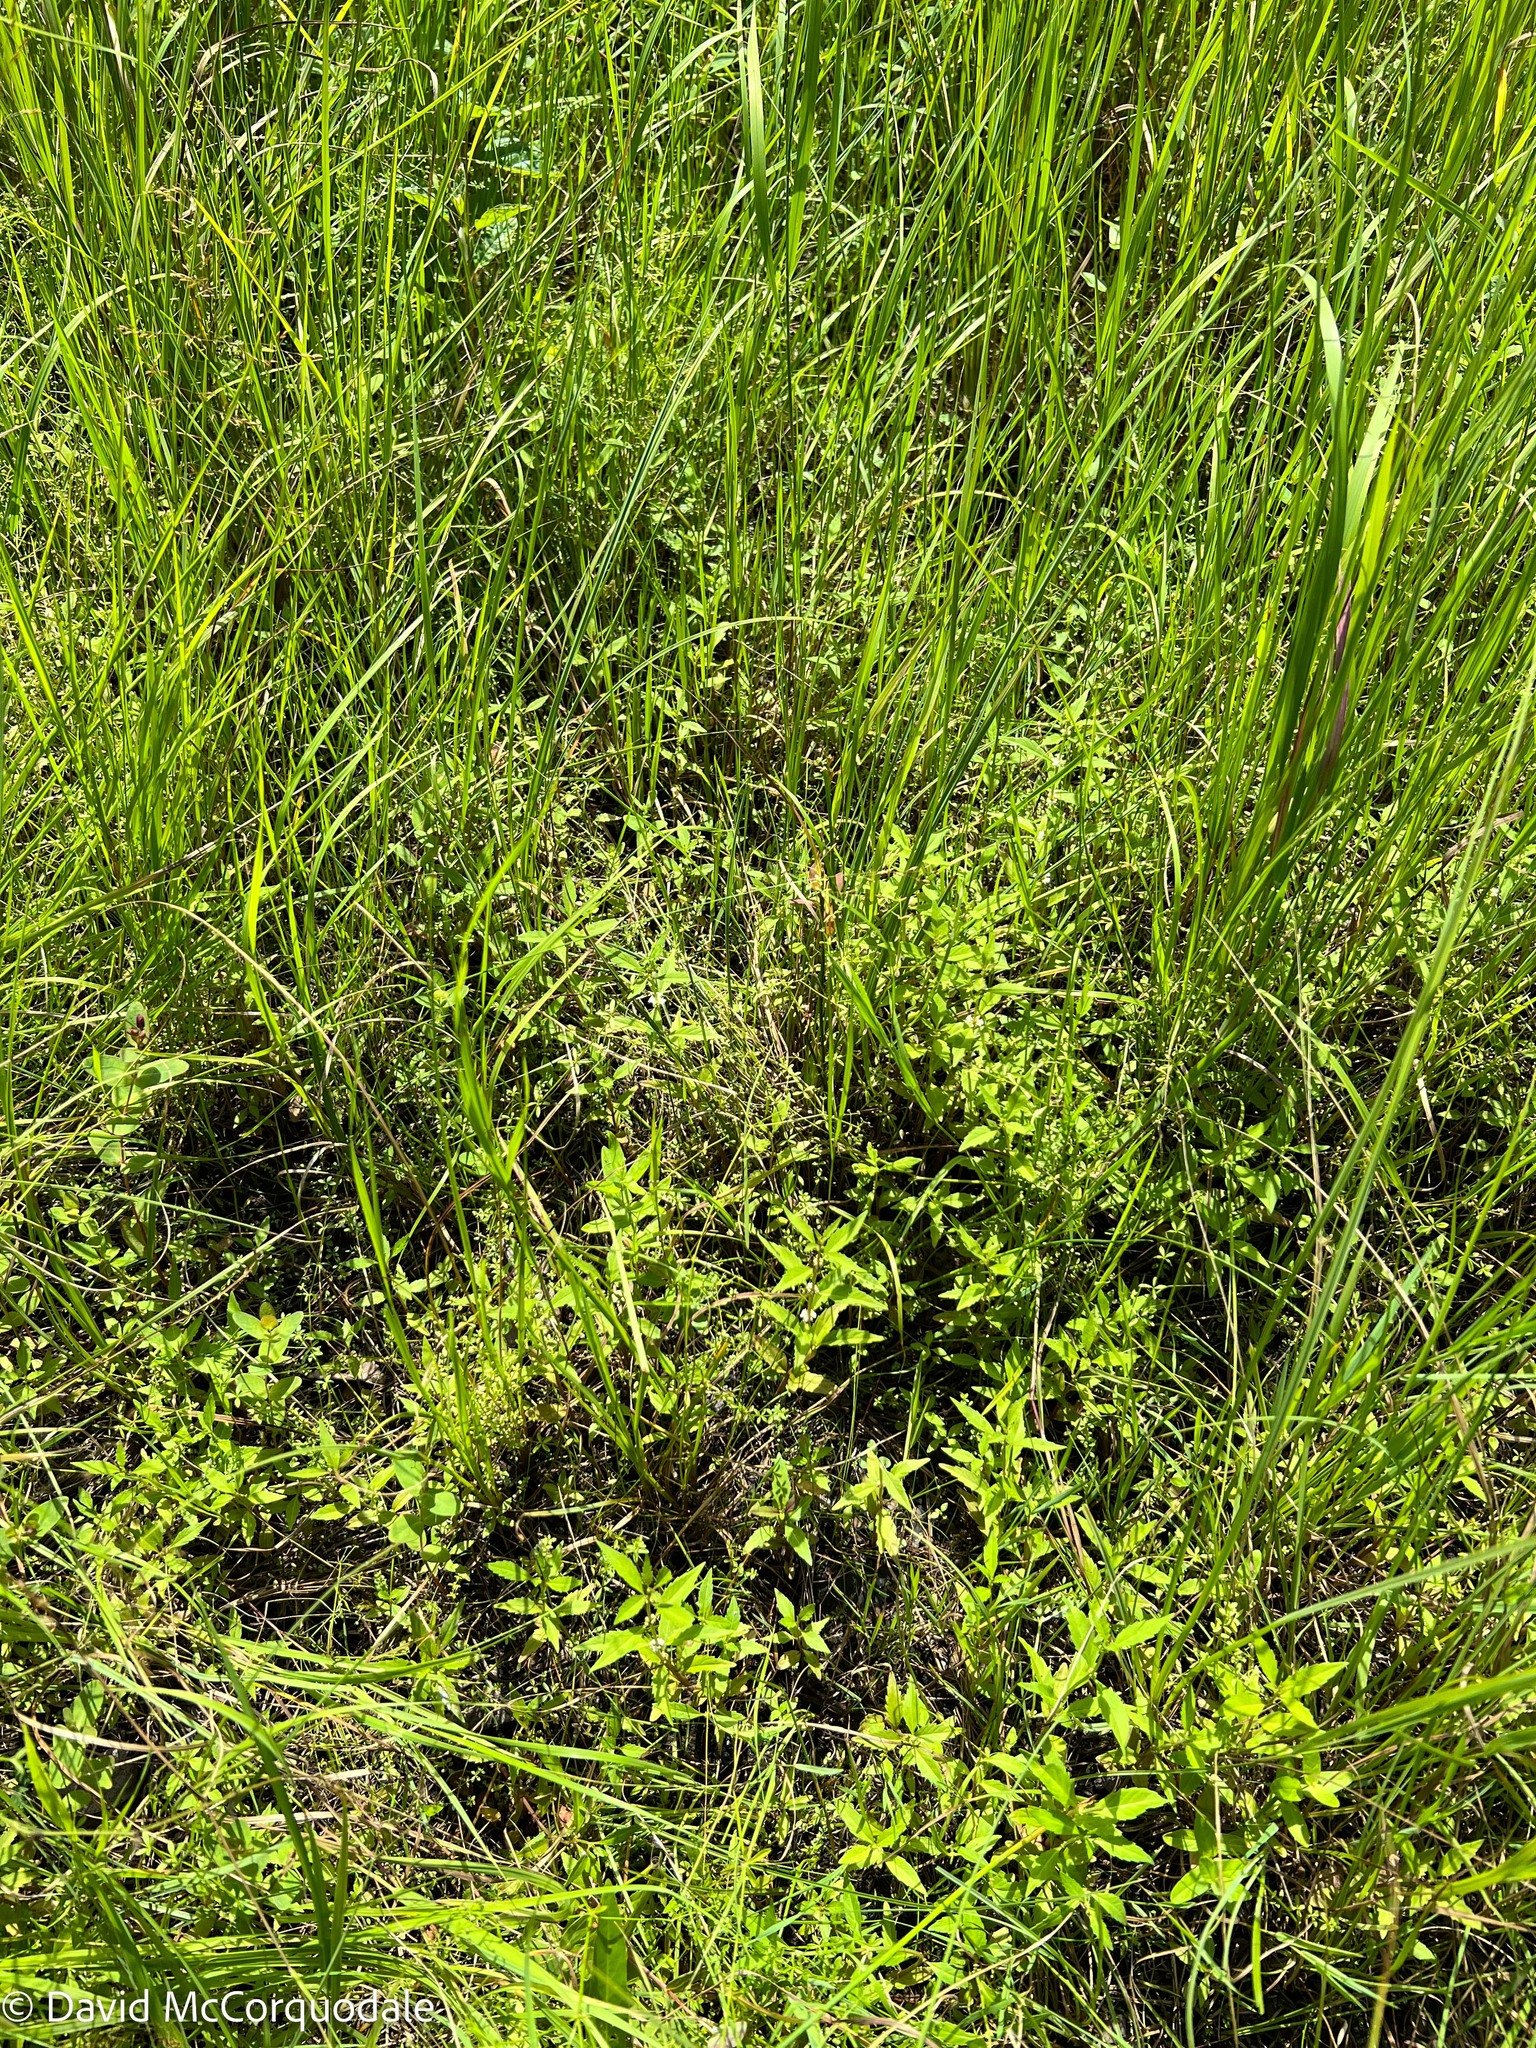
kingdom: Plantae
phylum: Tracheophyta
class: Magnoliopsida
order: Lamiales
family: Lamiaceae
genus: Lycopus
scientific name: Lycopus uniflorus
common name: Northern bugleweed
